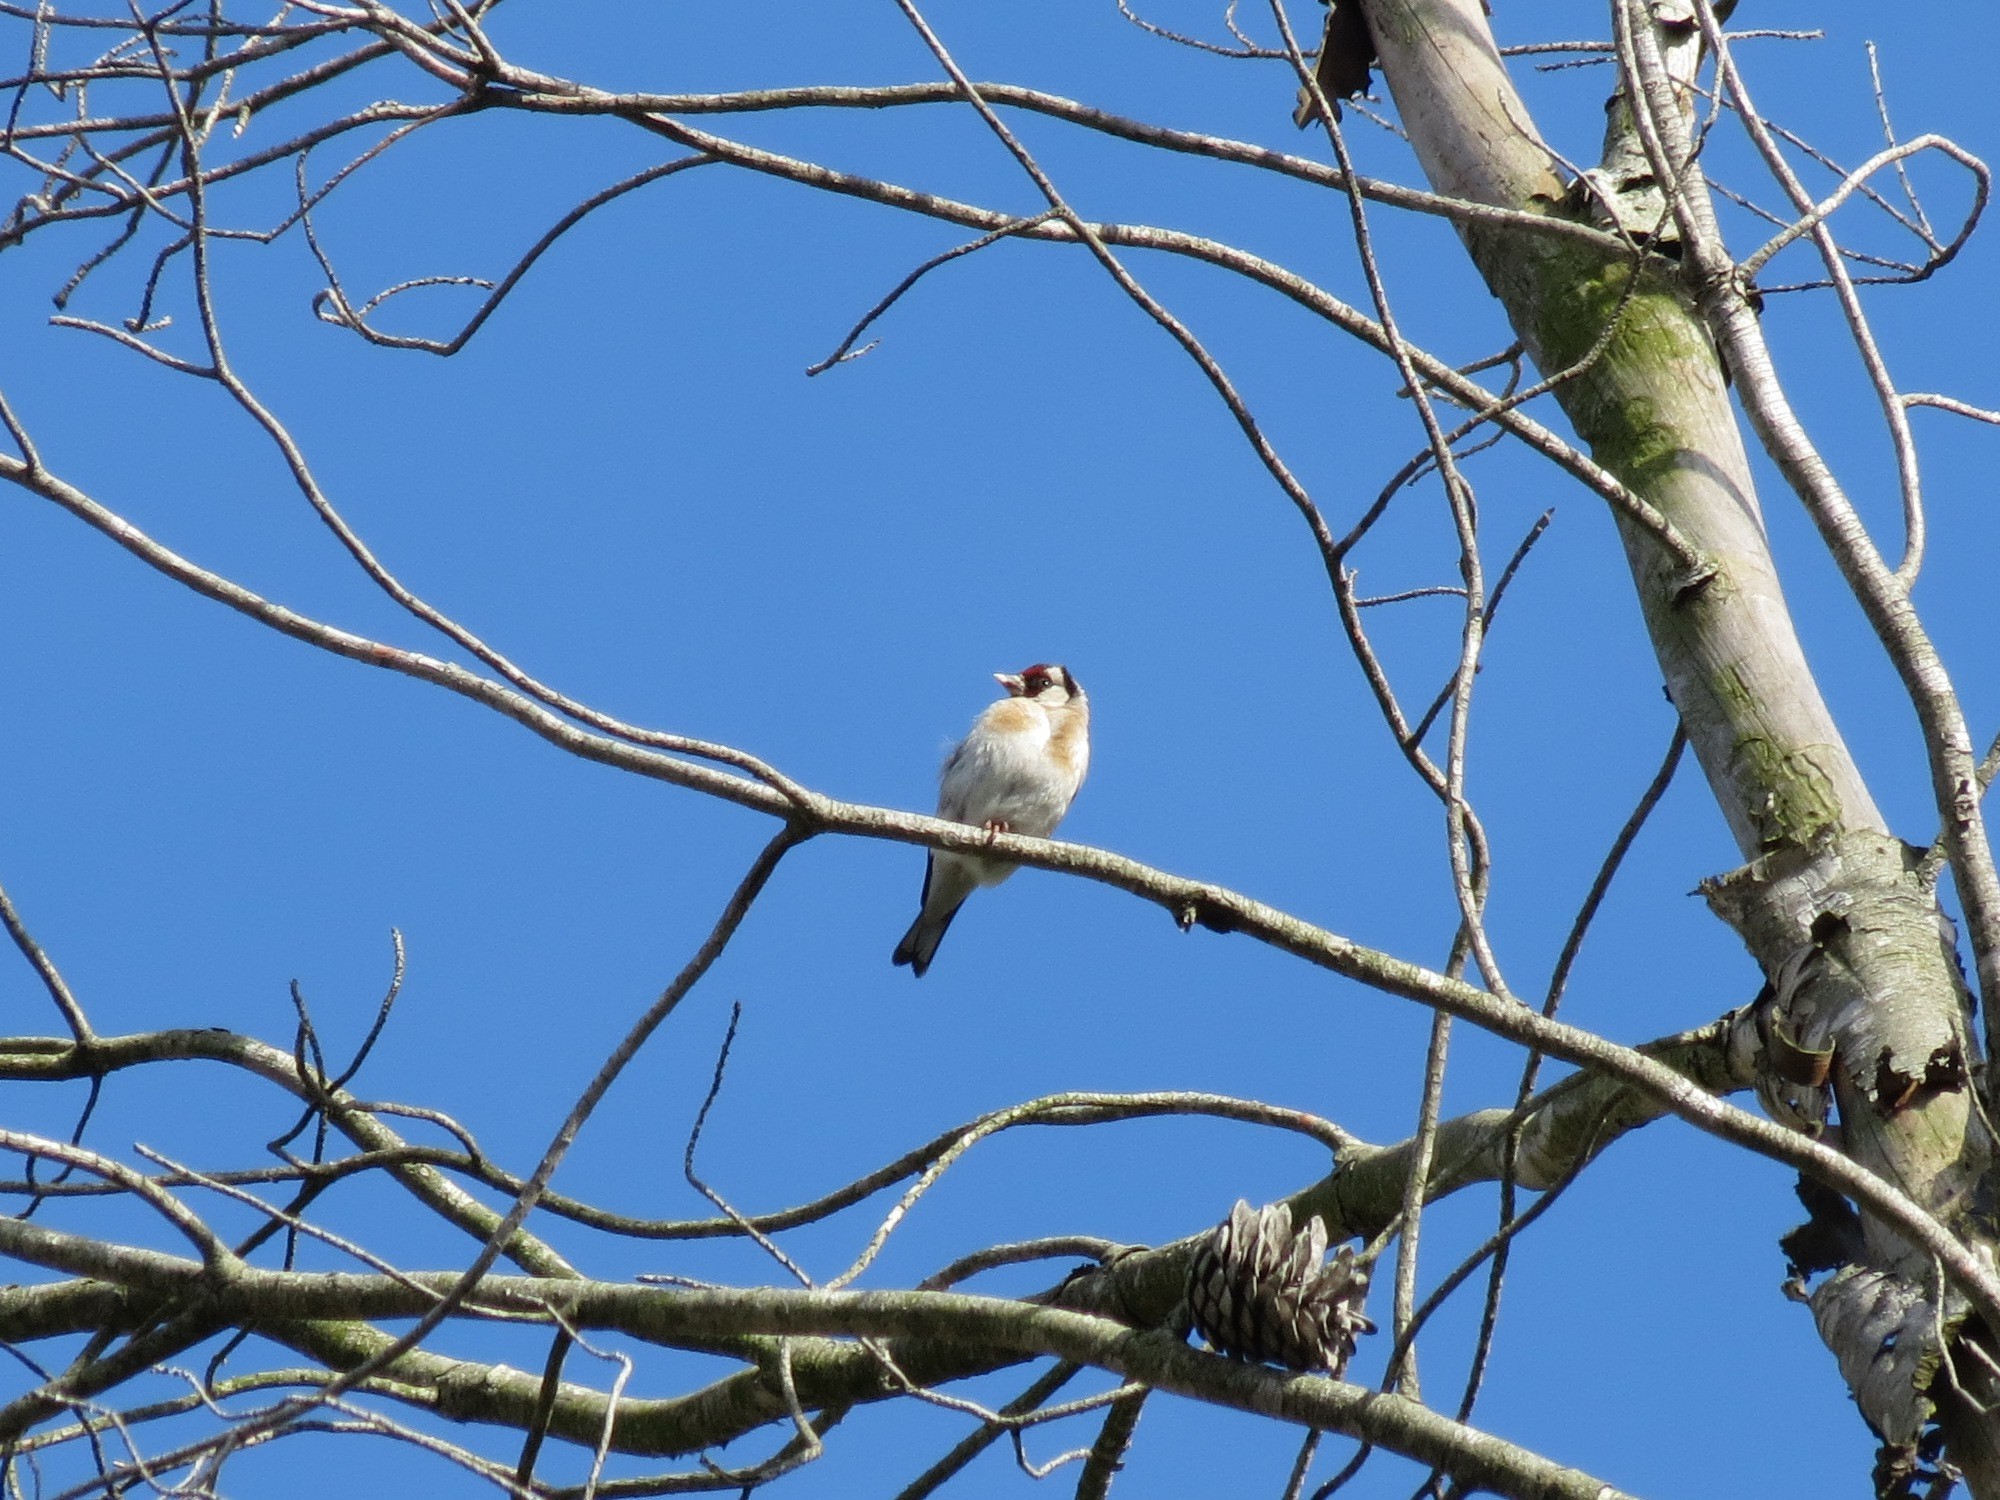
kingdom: Animalia
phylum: Chordata
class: Aves
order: Passeriformes
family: Fringillidae
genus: Carduelis
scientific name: Carduelis carduelis
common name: European goldfinch
